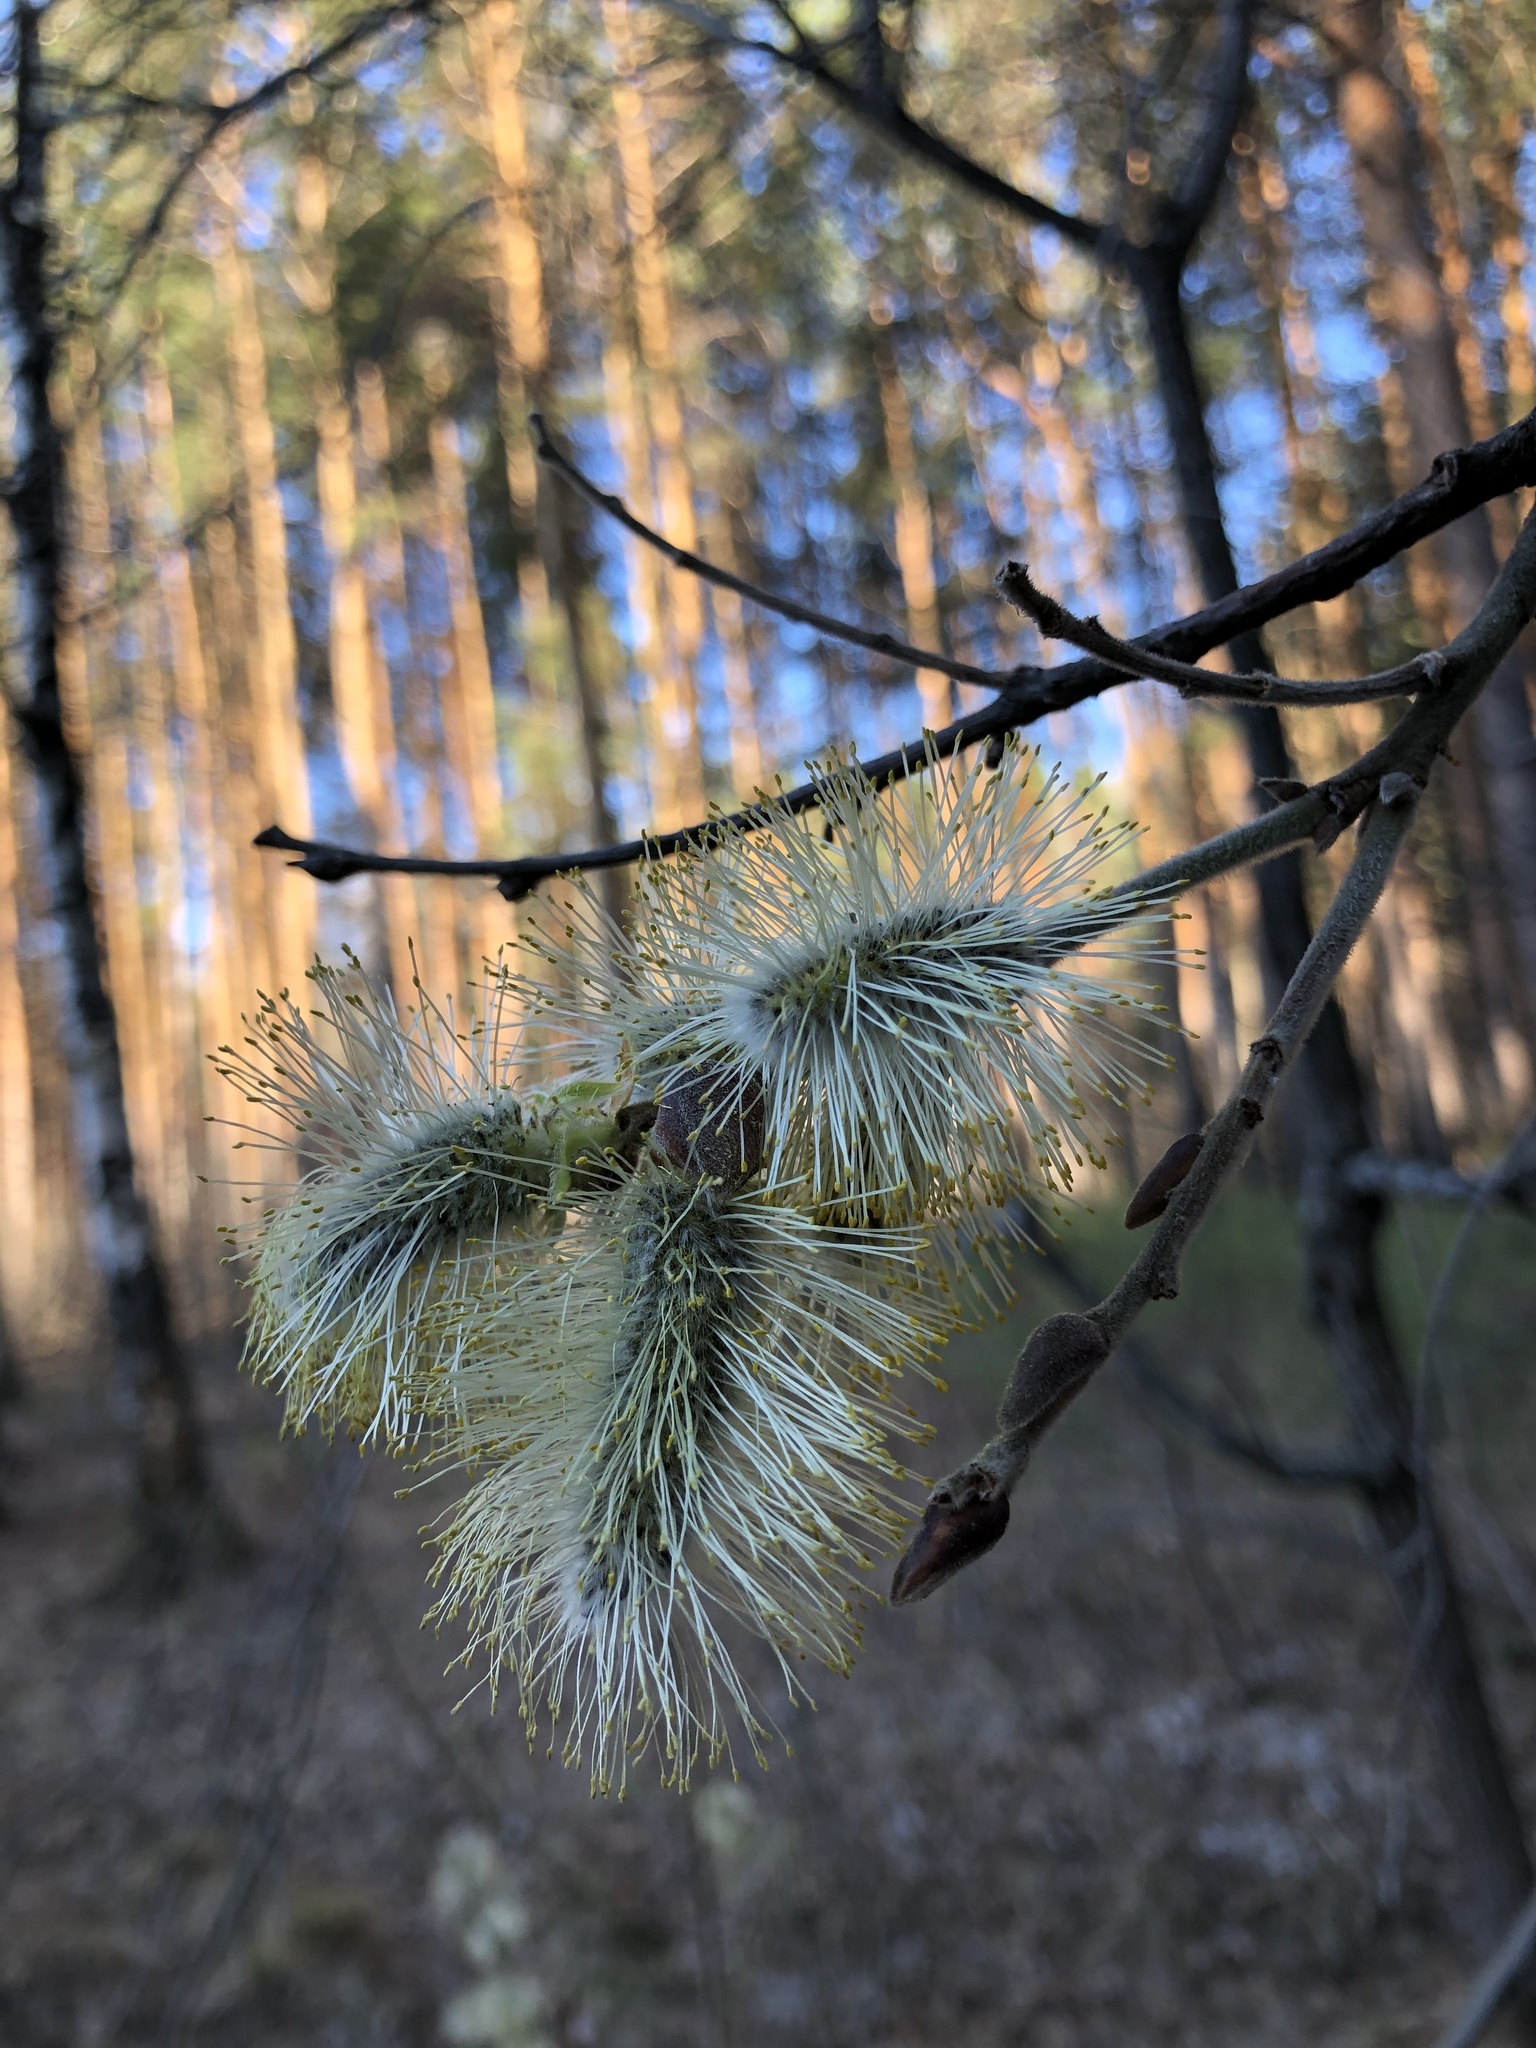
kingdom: Plantae
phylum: Tracheophyta
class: Magnoliopsida
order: Malpighiales
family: Salicaceae
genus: Salix
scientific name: Salix caprea
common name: Goat willow
